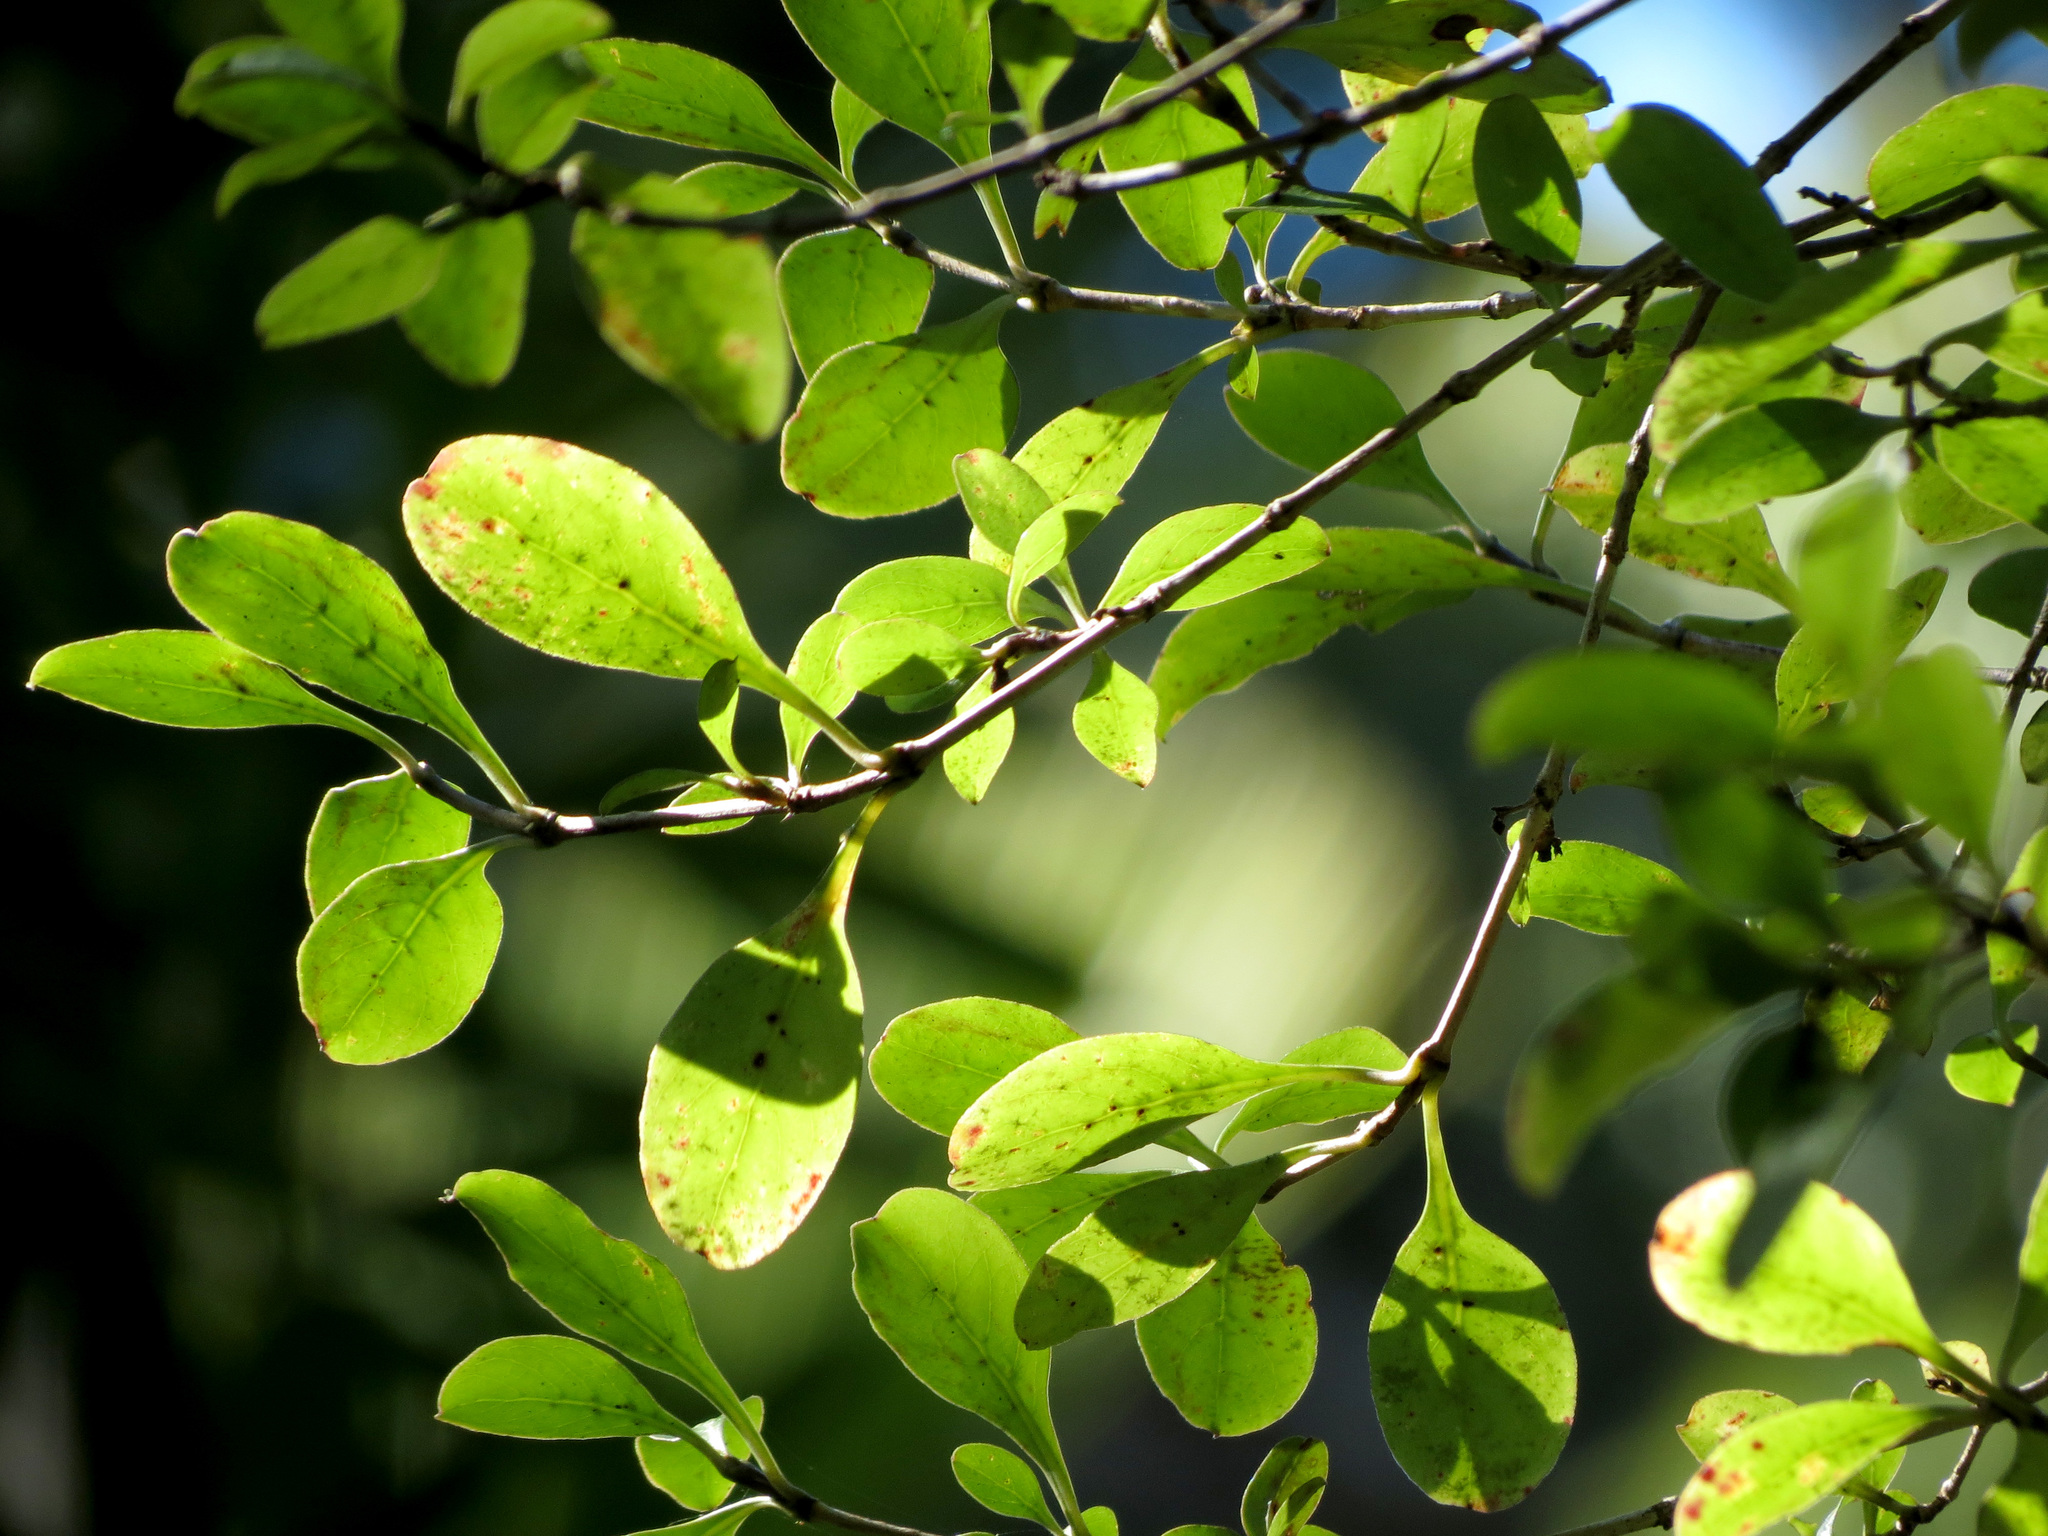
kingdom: Plantae
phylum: Tracheophyta
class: Magnoliopsida
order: Gentianales
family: Rubiaceae
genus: Coprosma
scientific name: Coprosma foetidissima
